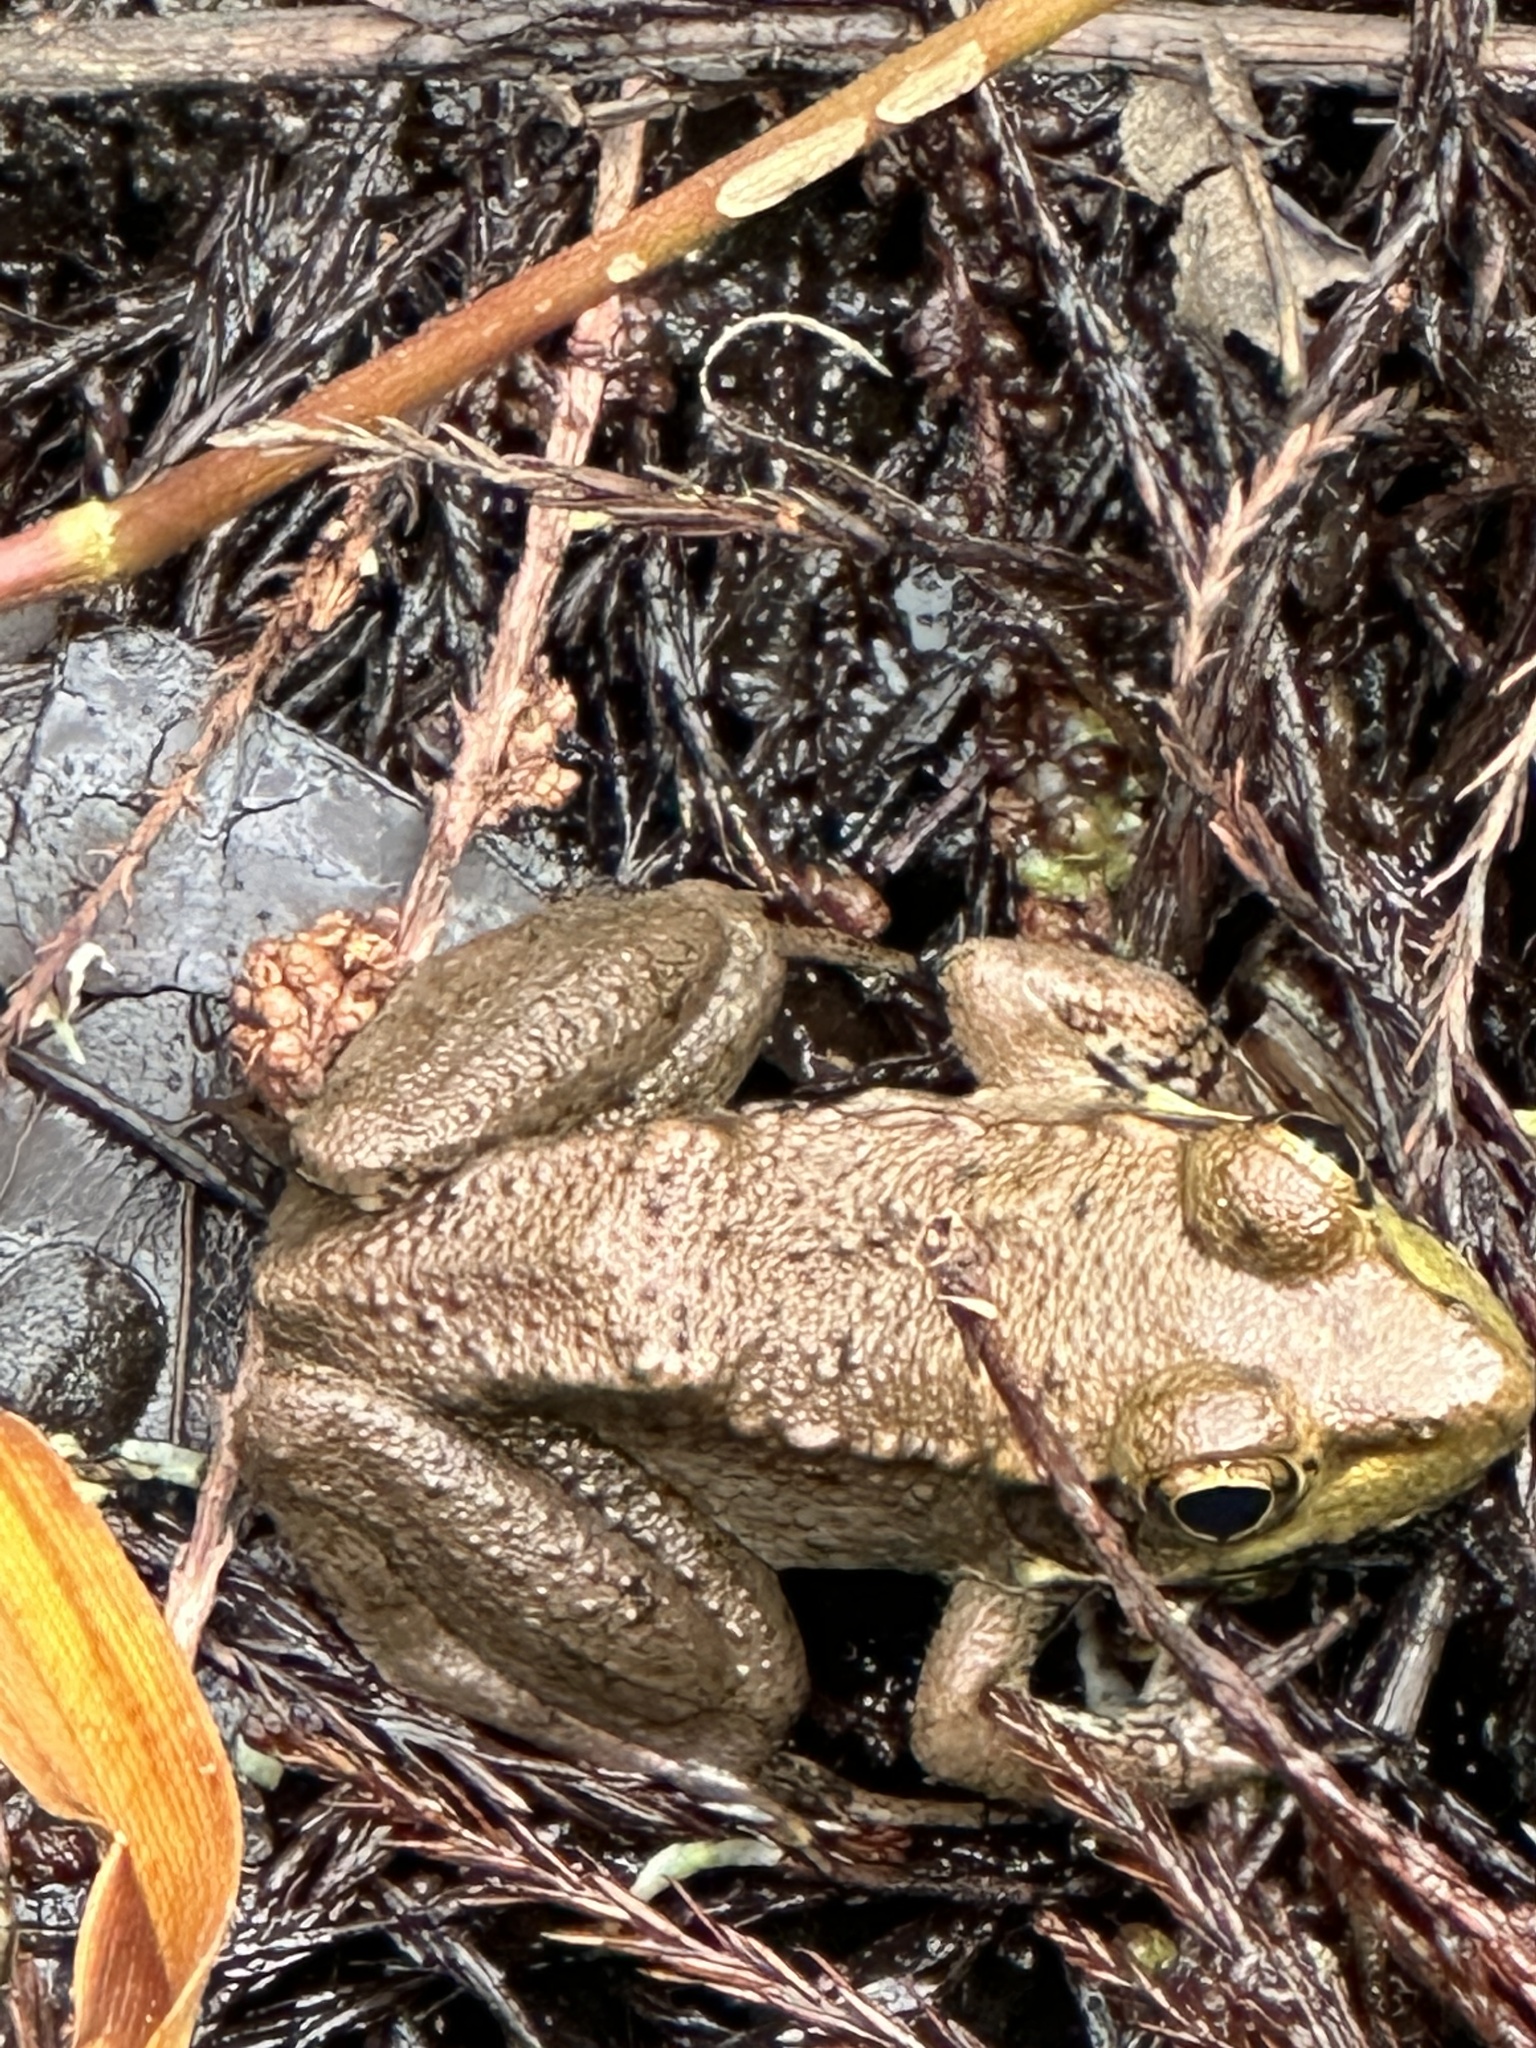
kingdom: Animalia
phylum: Chordata
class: Amphibia
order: Anura
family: Ranidae
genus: Lithobates
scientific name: Lithobates clamitans
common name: Green frog
